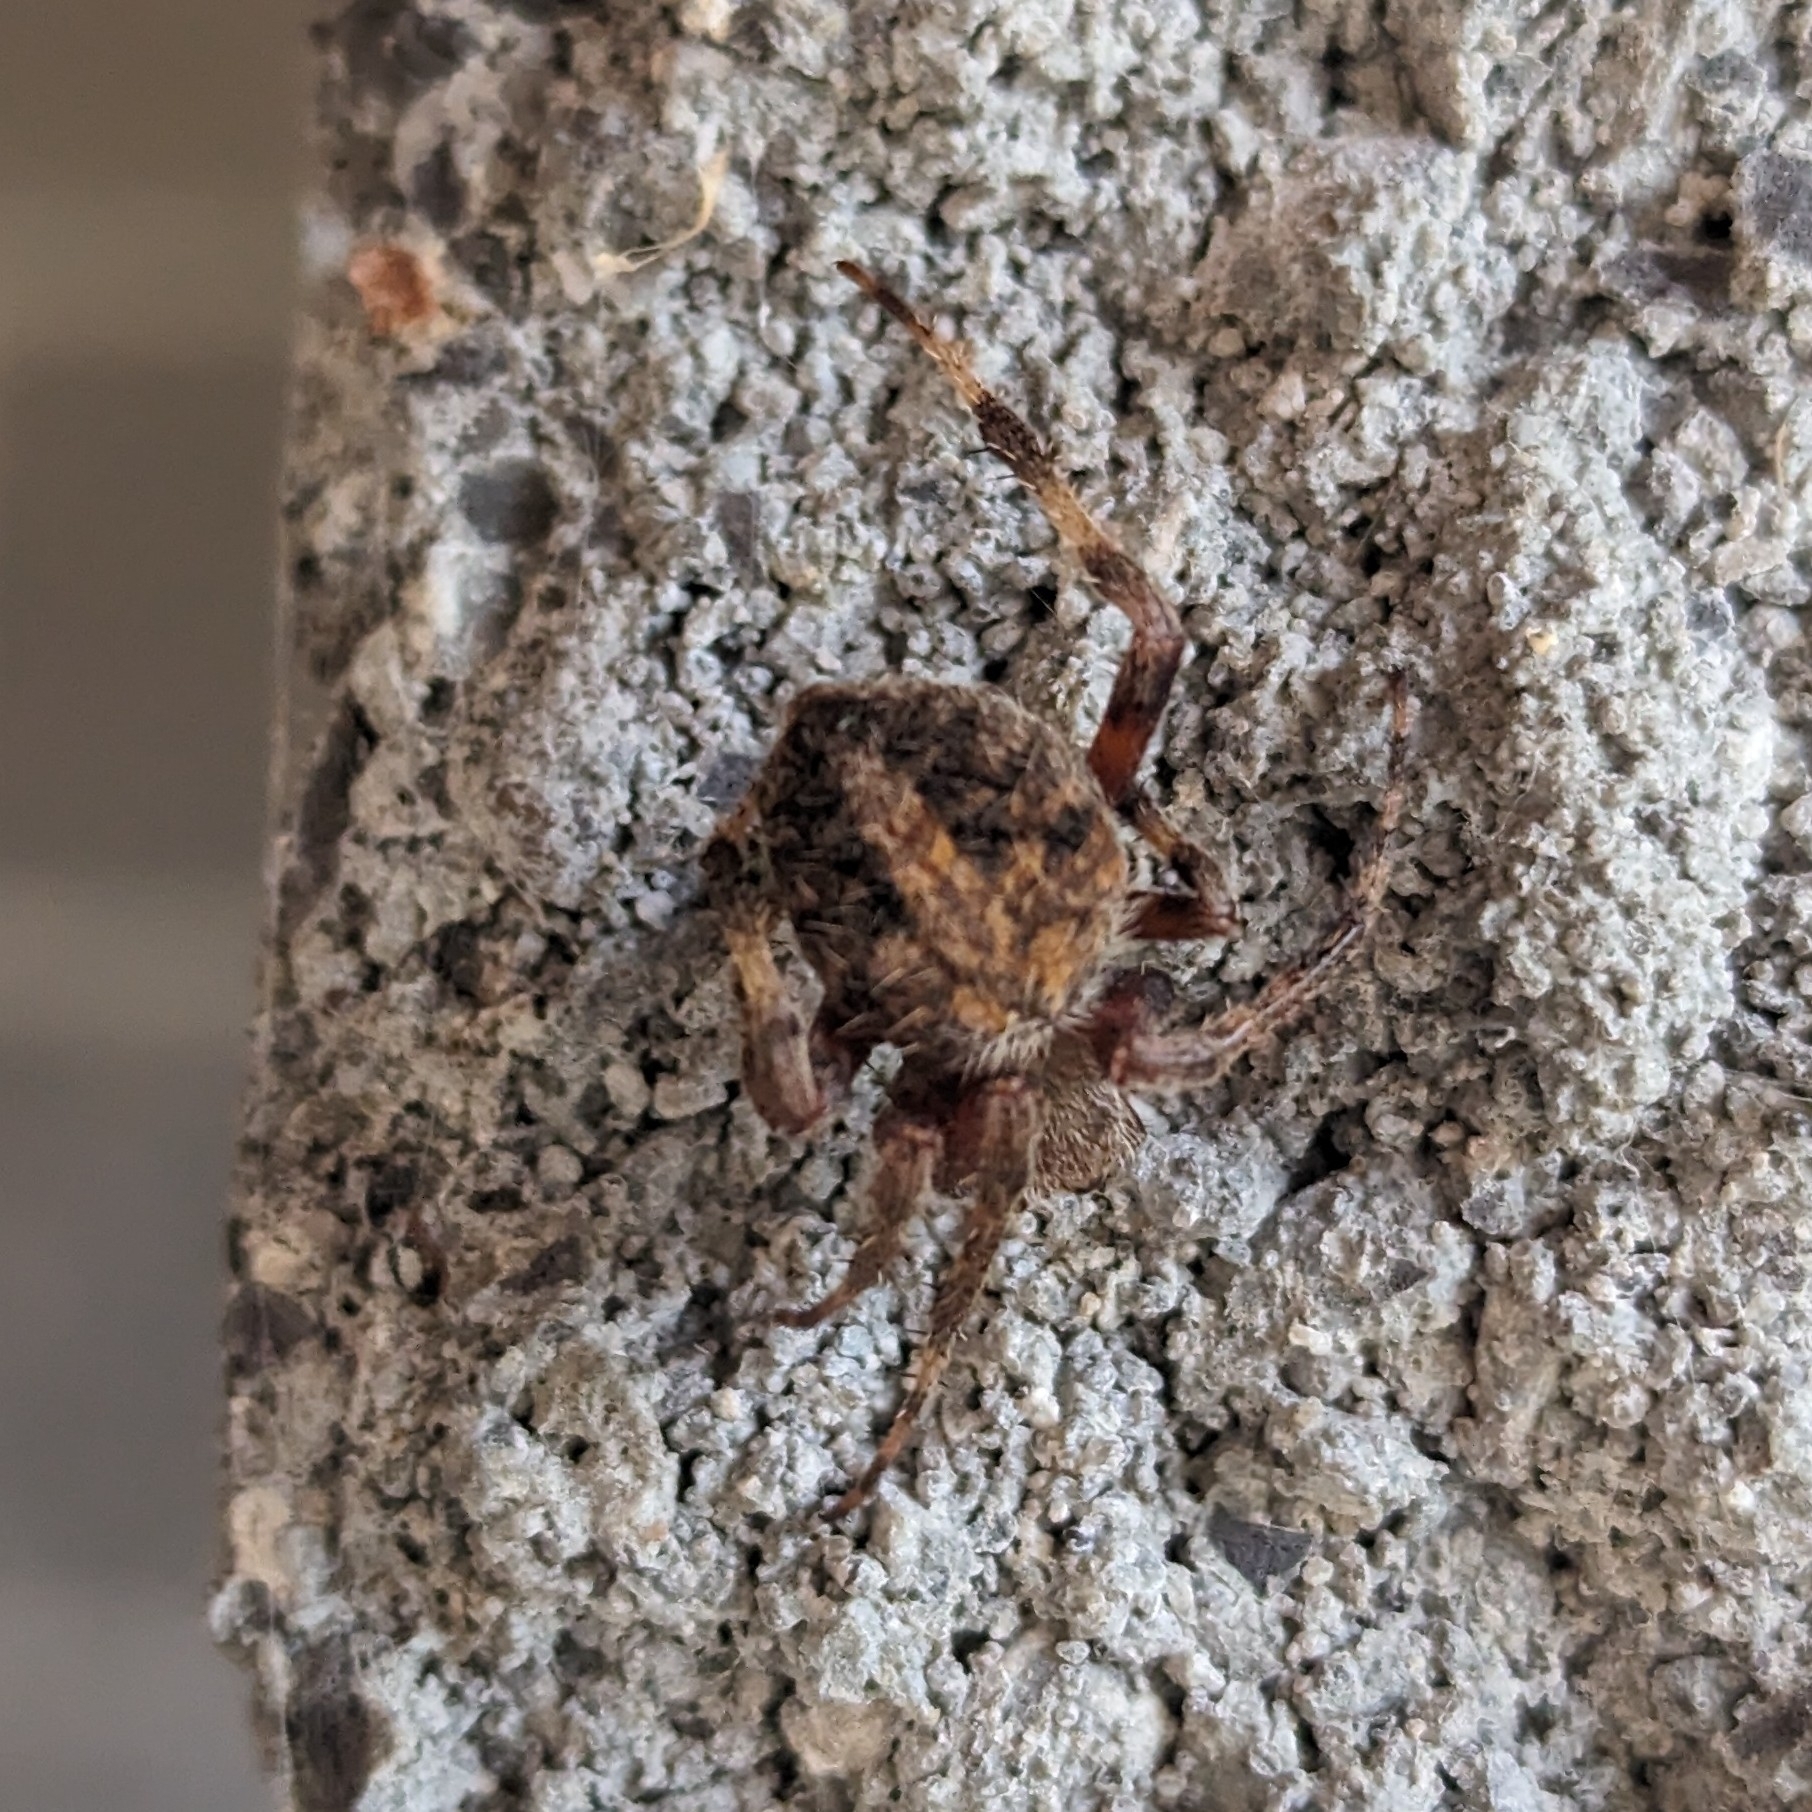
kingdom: Animalia
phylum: Arthropoda
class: Arachnida
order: Araneae
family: Araneidae
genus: Neoscona
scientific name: Neoscona crucifera
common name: Spotted orbweaver
